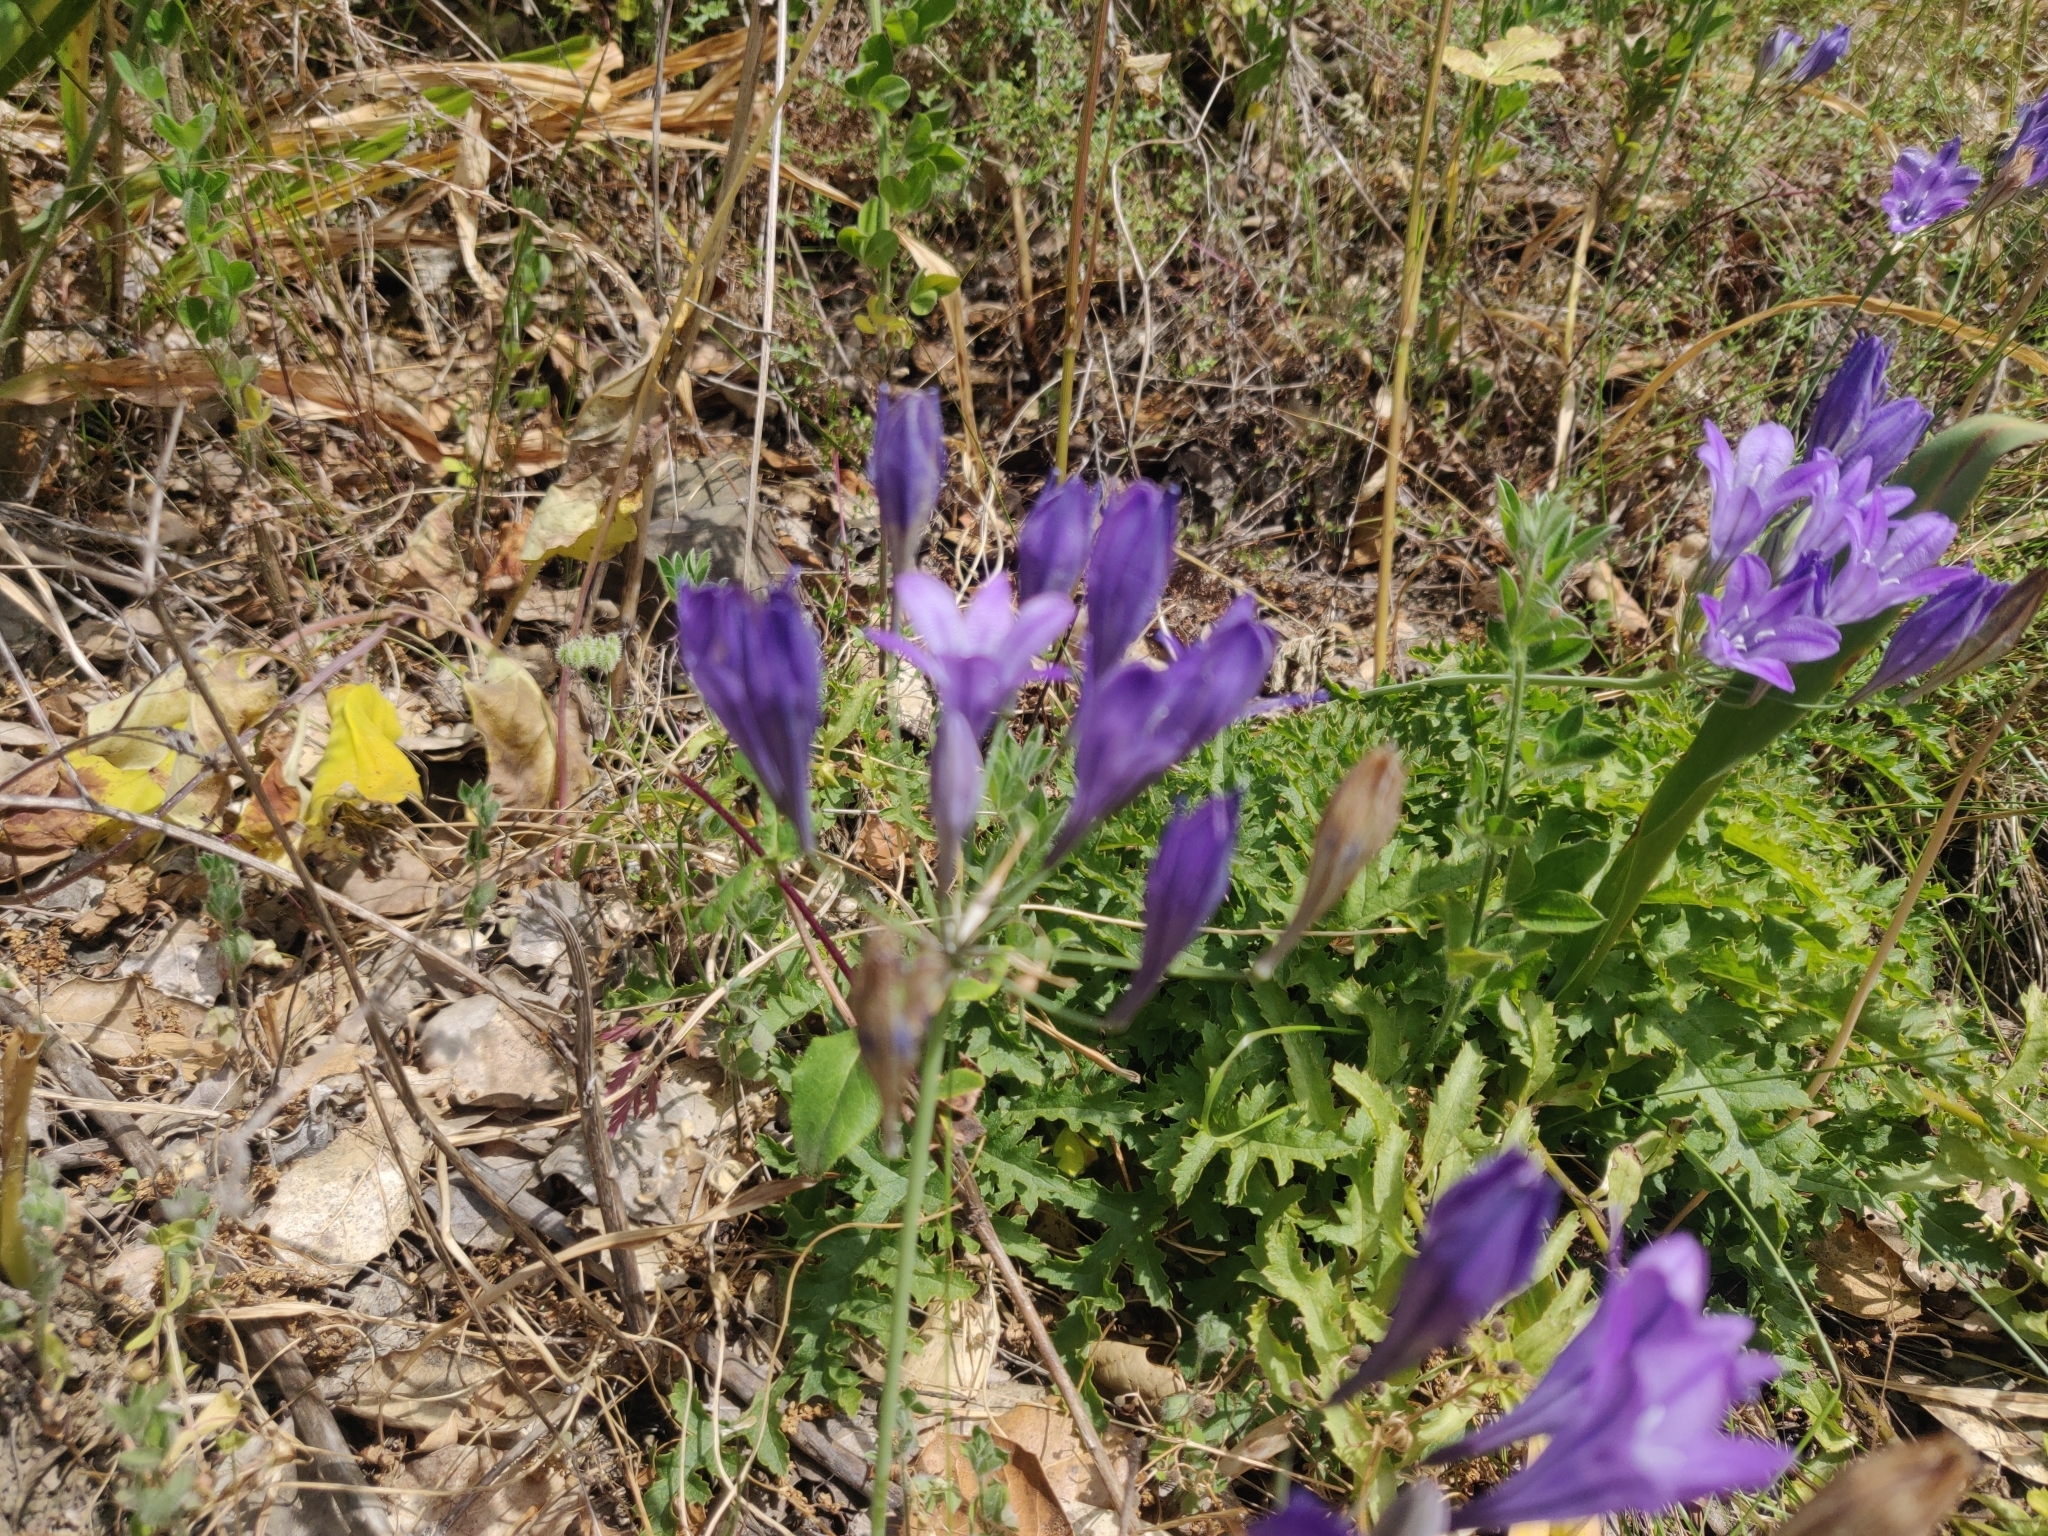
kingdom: Plantae
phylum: Tracheophyta
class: Liliopsida
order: Asparagales
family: Asparagaceae
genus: Triteleia
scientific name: Triteleia laxa
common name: Triplet-lily
